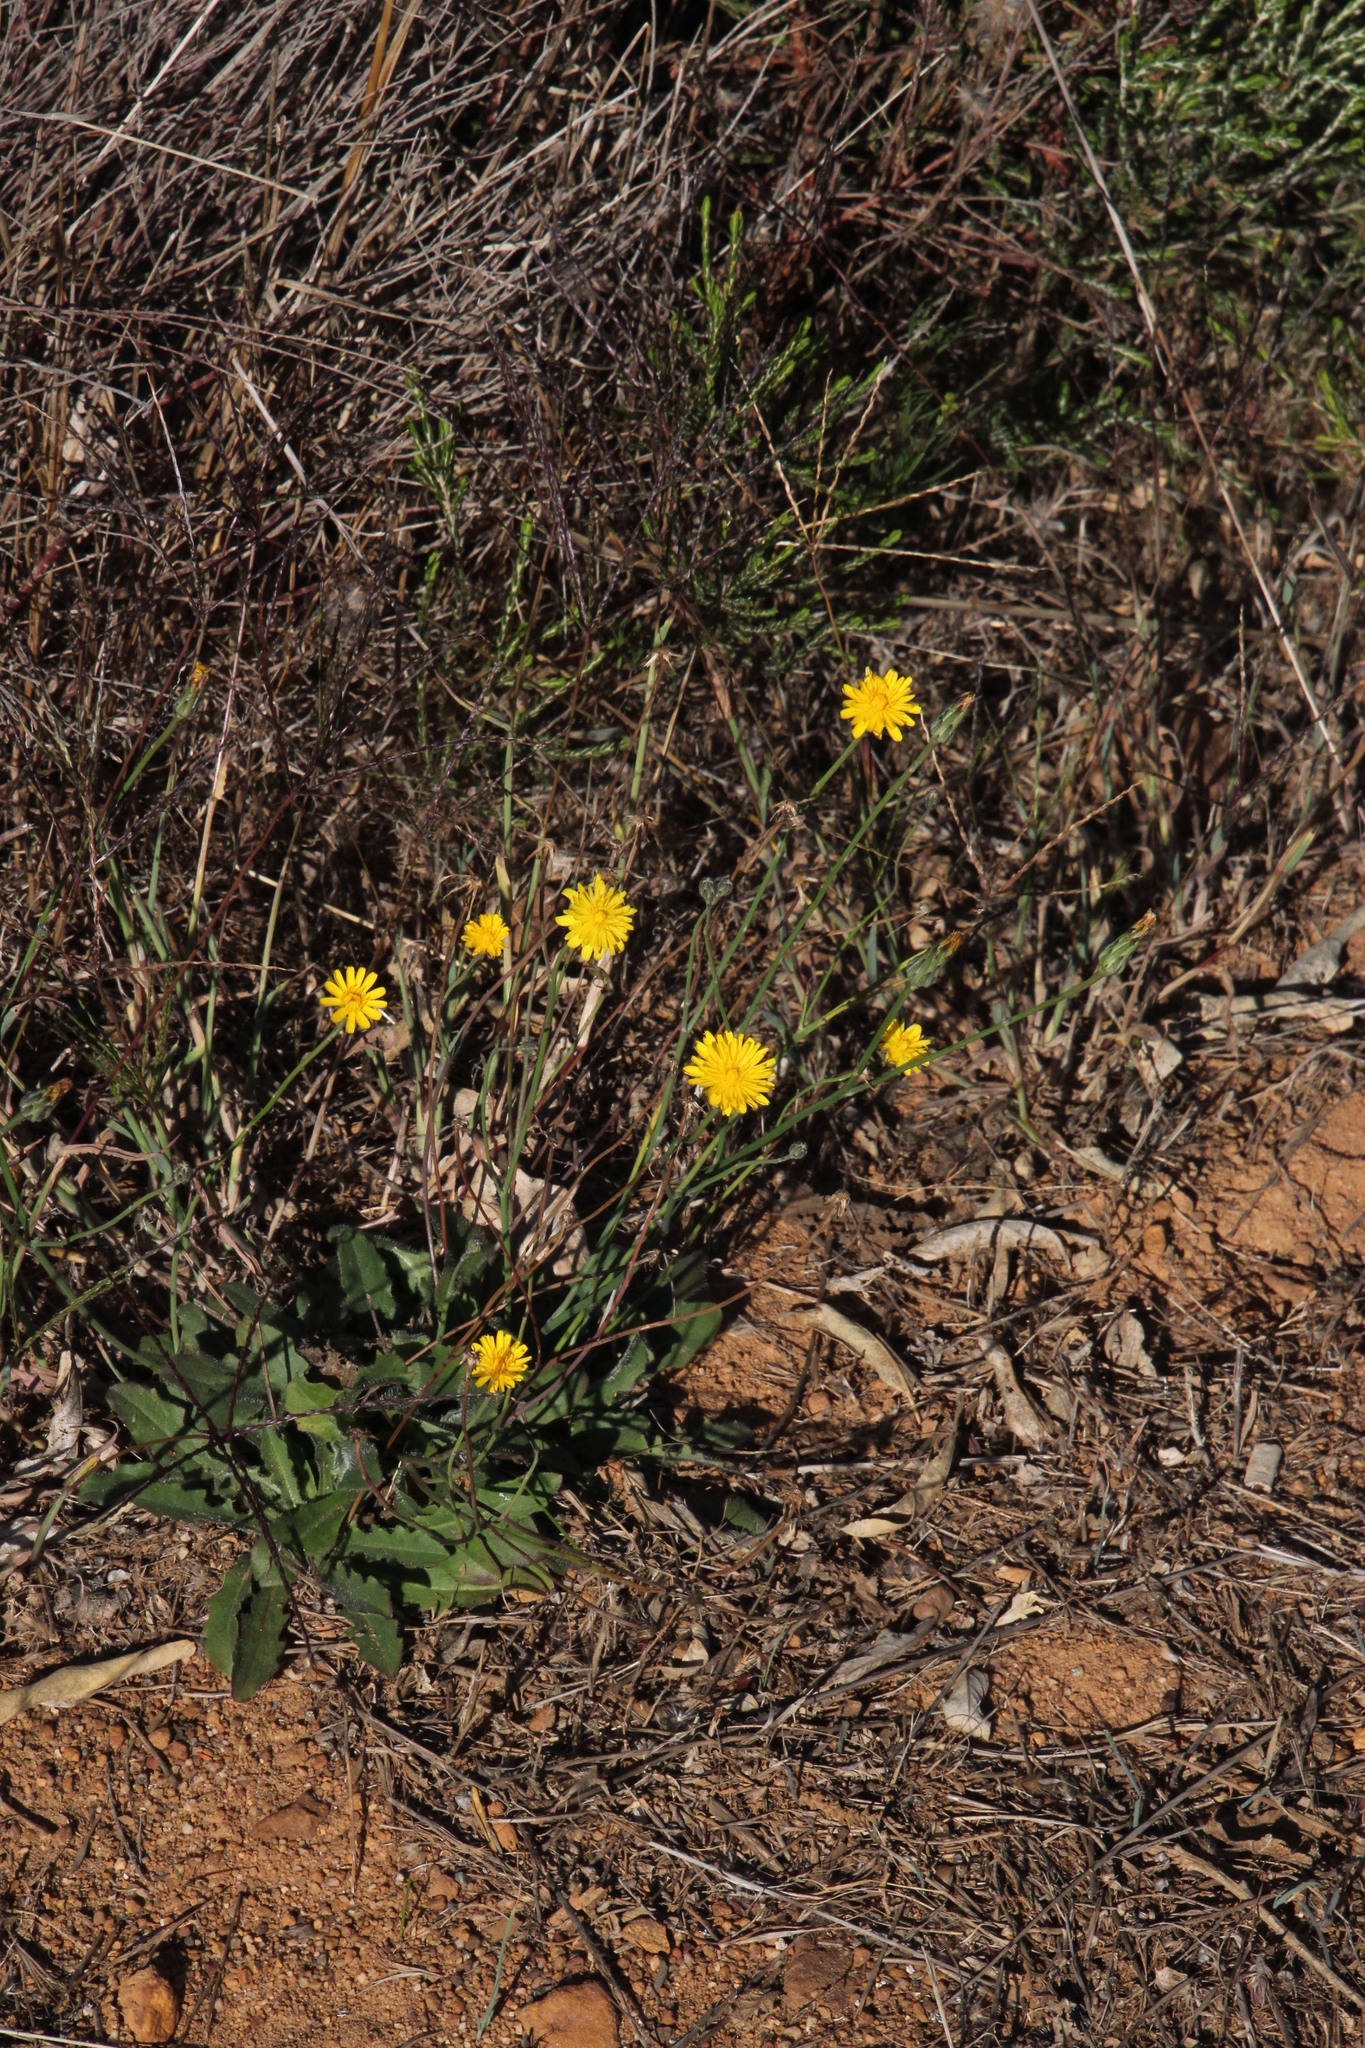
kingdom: Plantae
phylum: Tracheophyta
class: Magnoliopsida
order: Asterales
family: Asteraceae
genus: Hypochaeris
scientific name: Hypochaeris radicata
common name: Flatweed
